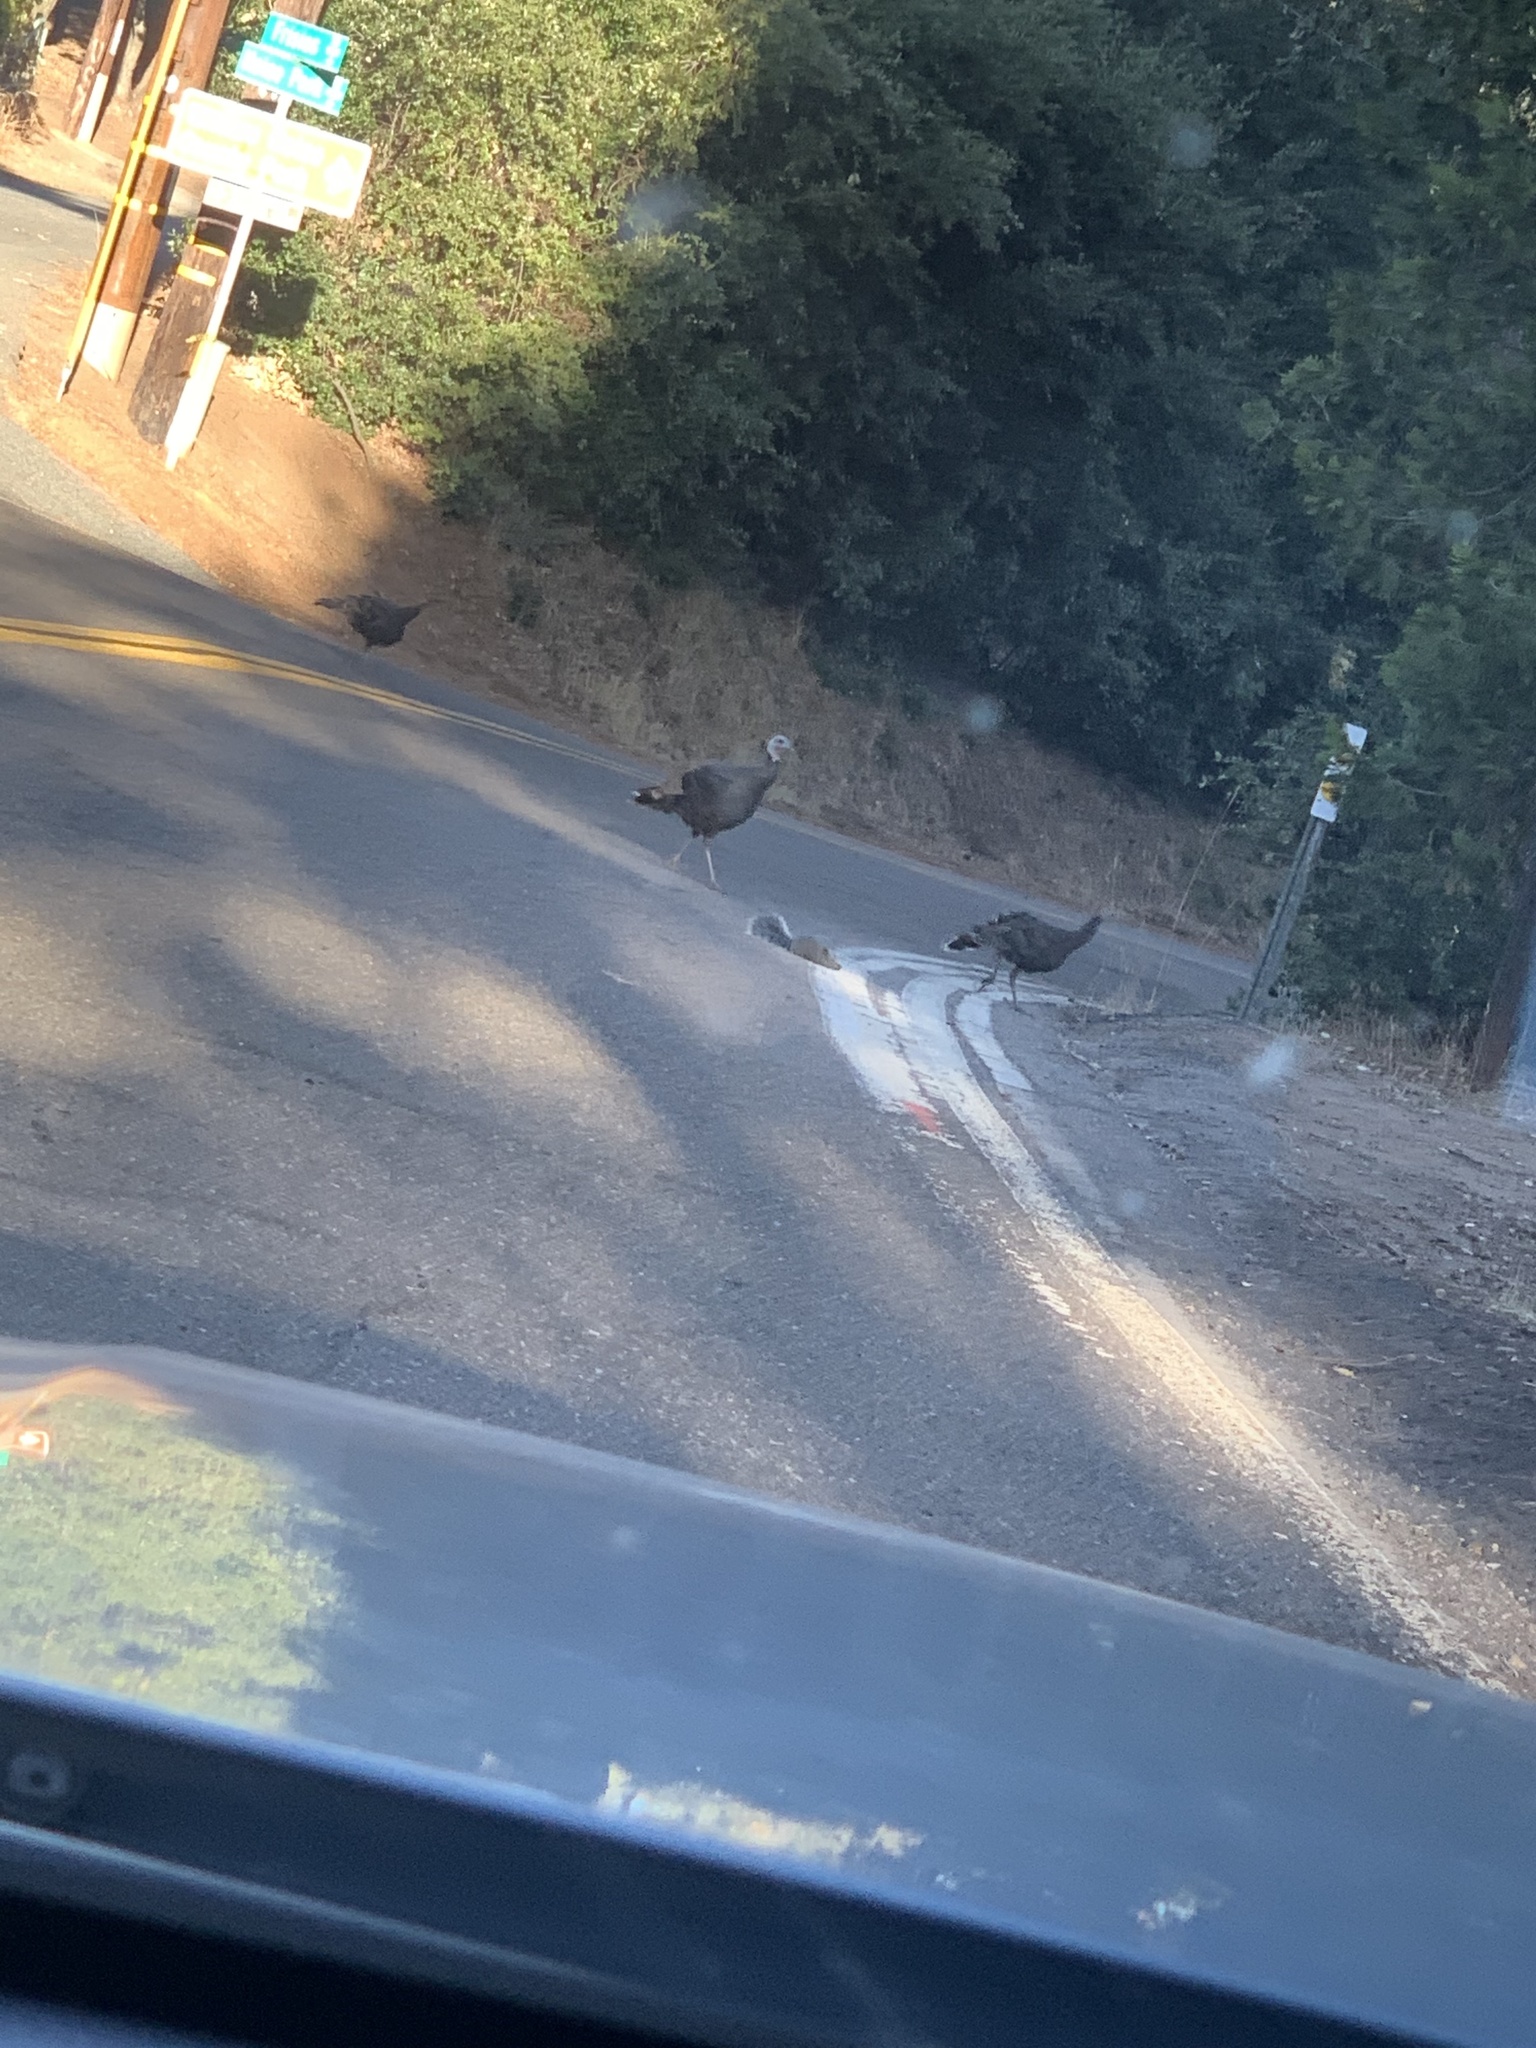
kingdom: Animalia
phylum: Chordata
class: Aves
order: Galliformes
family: Phasianidae
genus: Meleagris
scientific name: Meleagris gallopavo
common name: Wild turkey
